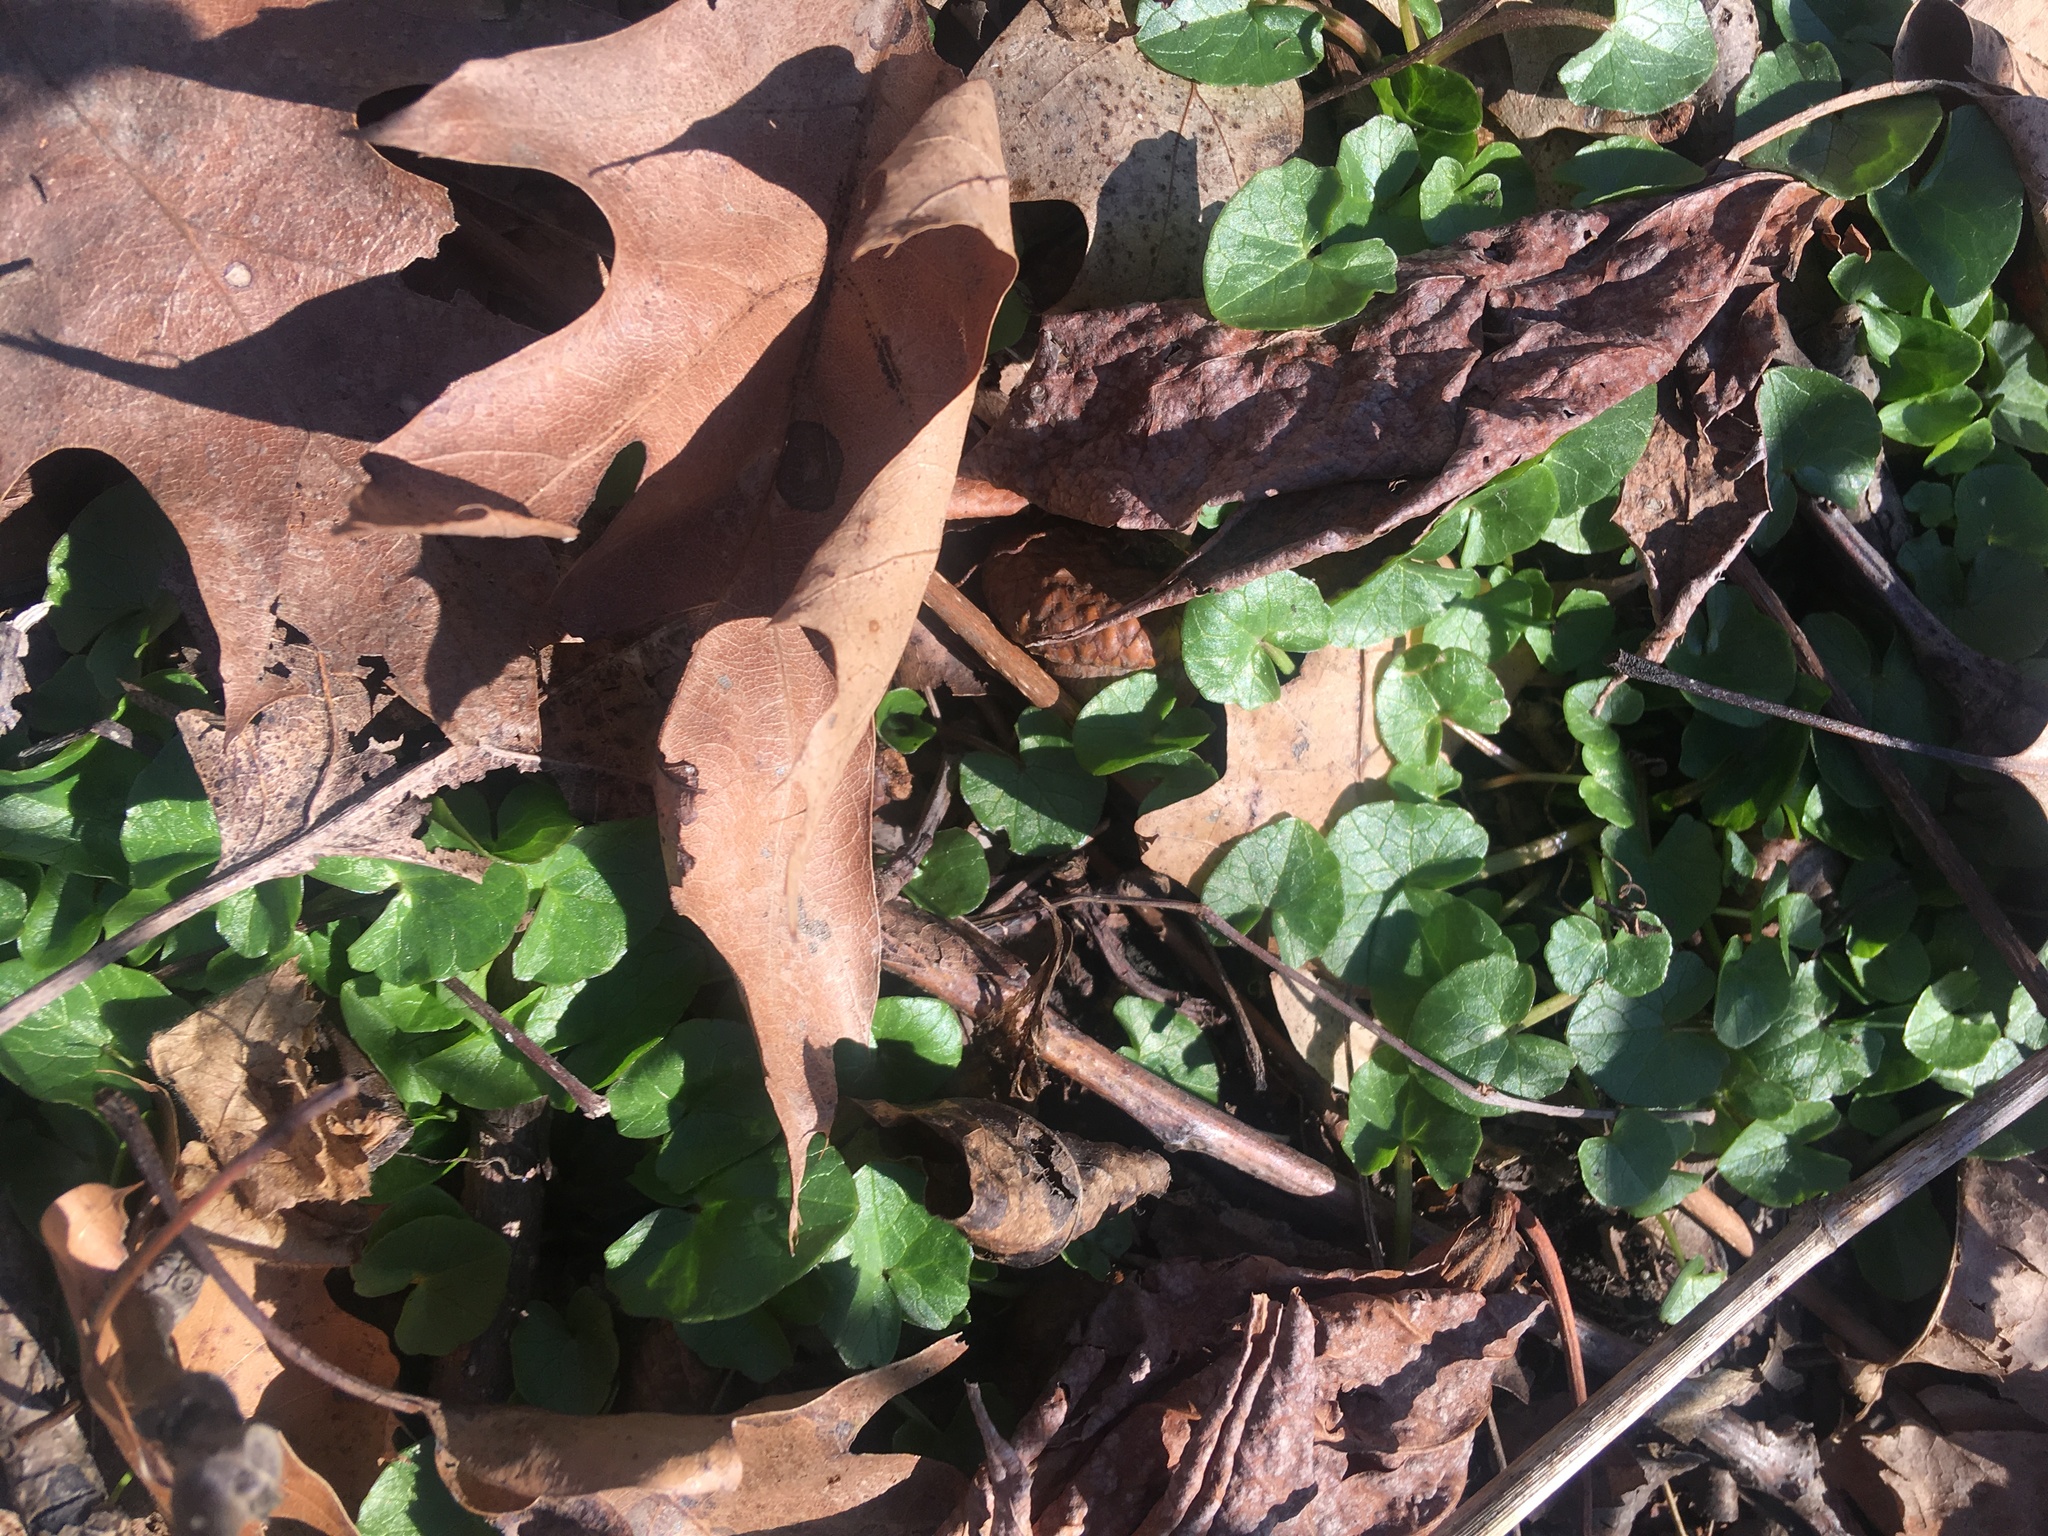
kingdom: Plantae
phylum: Tracheophyta
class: Magnoliopsida
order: Ranunculales
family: Ranunculaceae
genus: Ficaria
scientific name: Ficaria verna
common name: Lesser celandine
